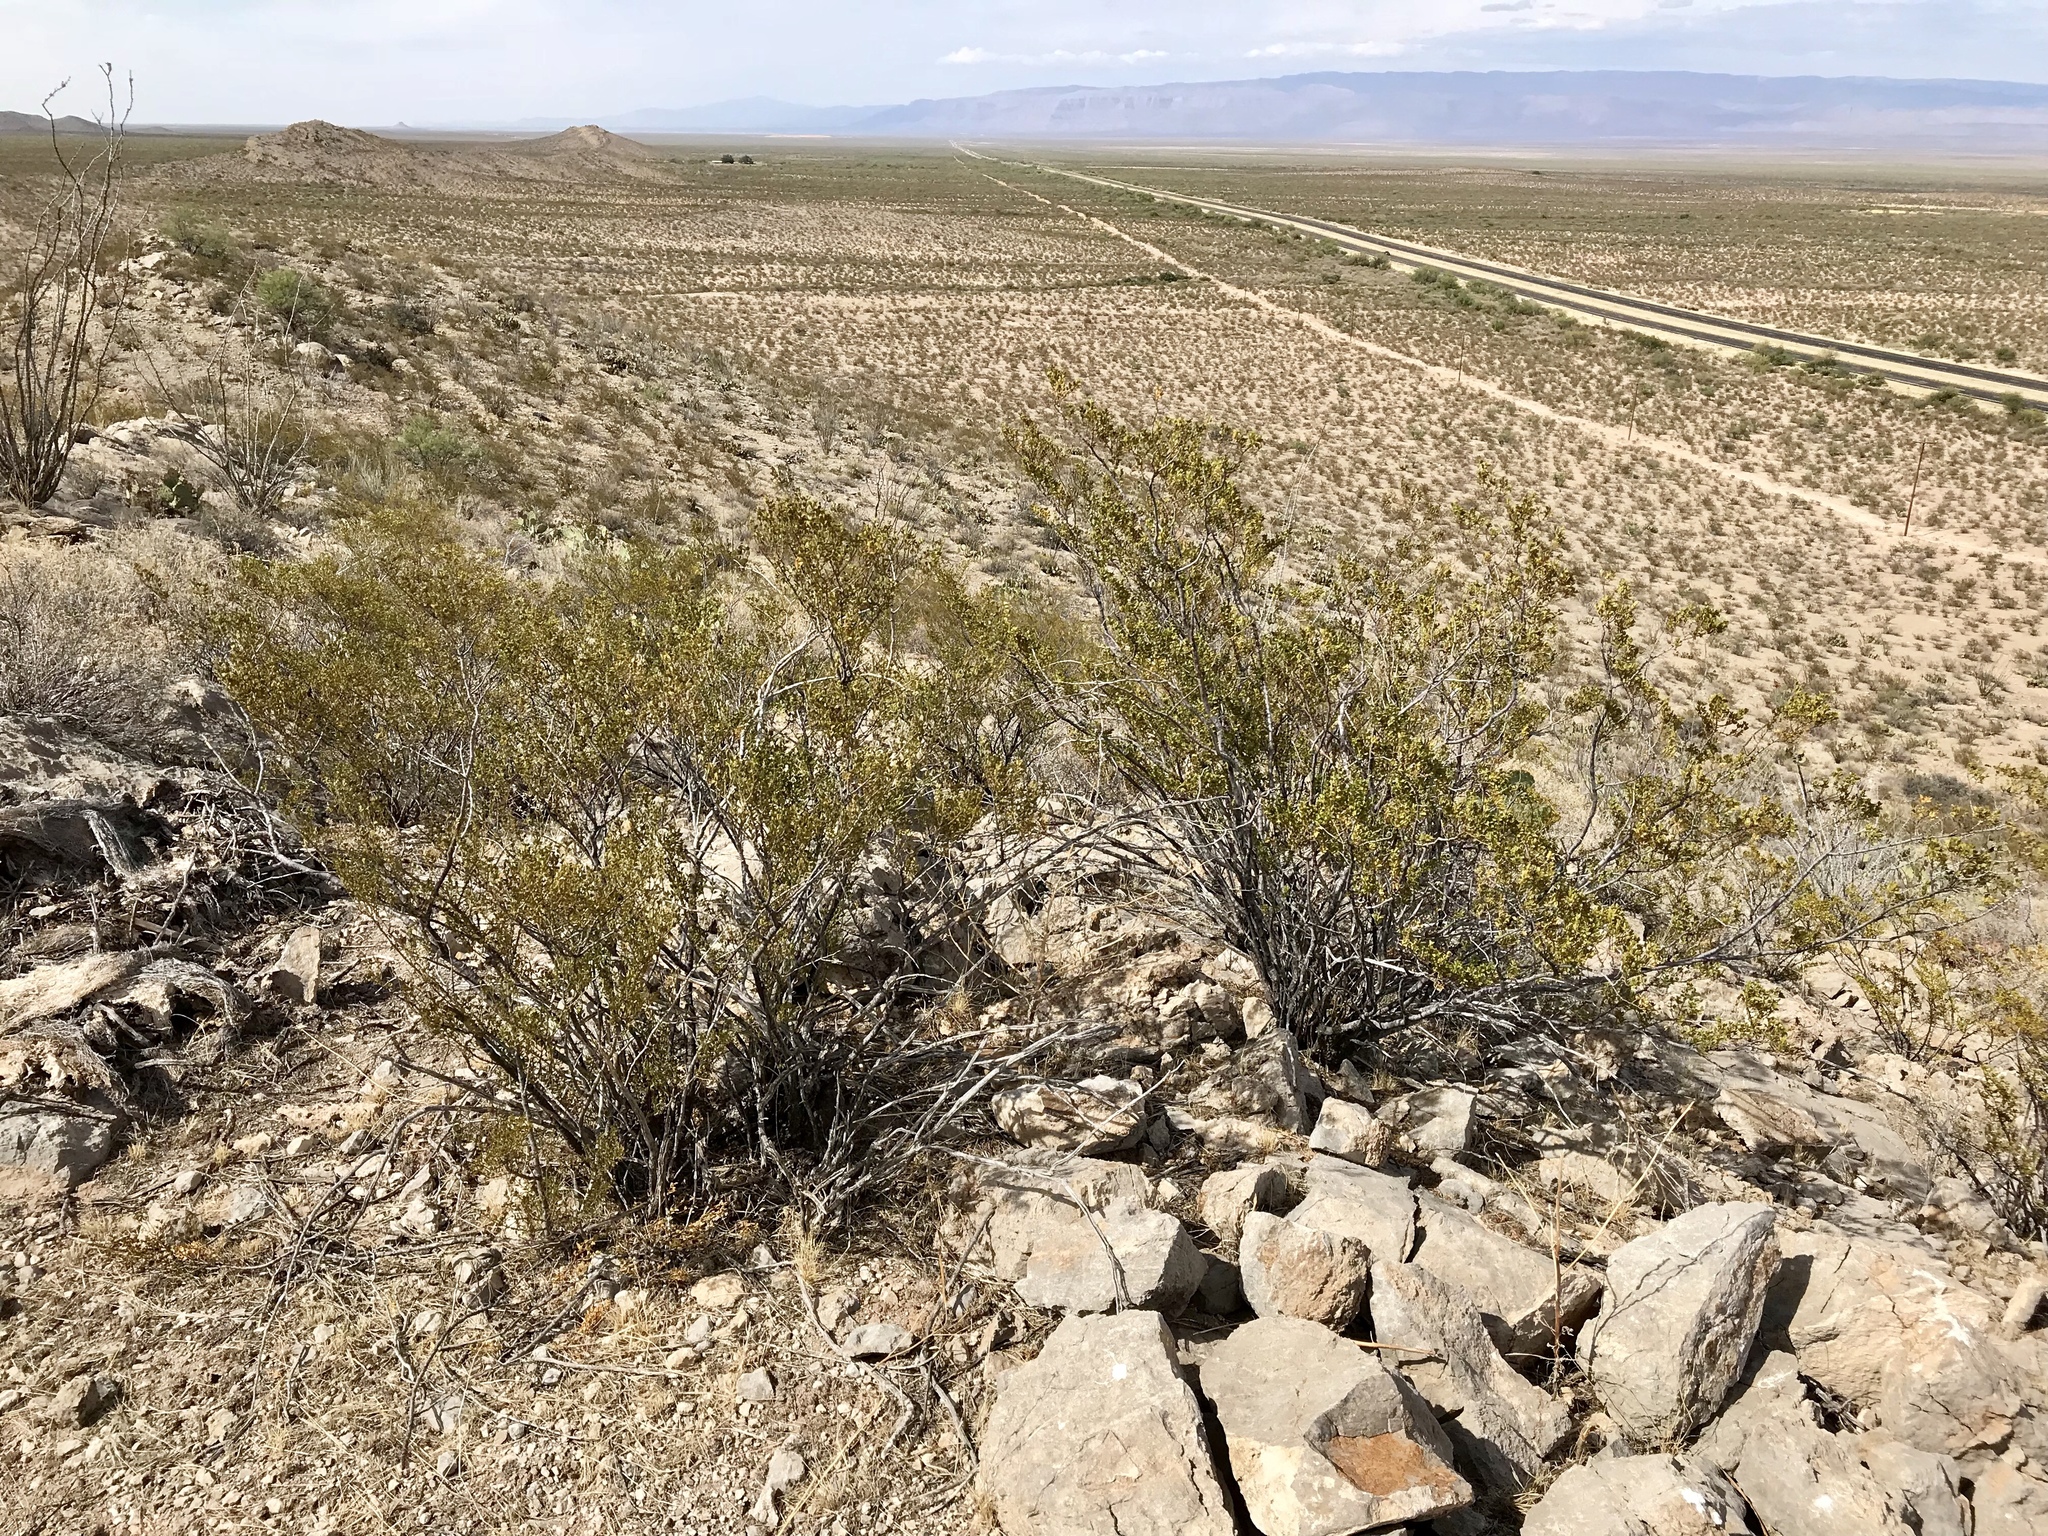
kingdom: Plantae
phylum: Tracheophyta
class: Magnoliopsida
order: Zygophyllales
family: Zygophyllaceae
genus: Larrea
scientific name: Larrea tridentata
